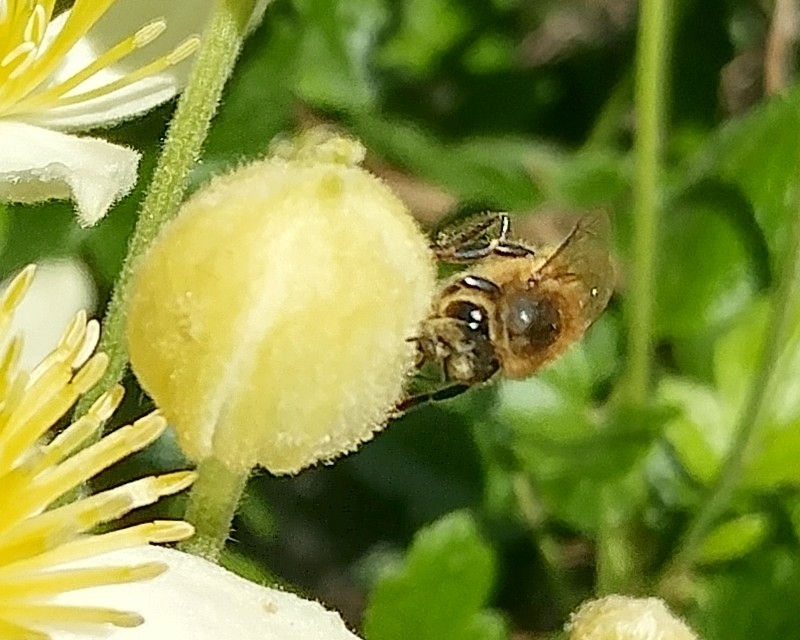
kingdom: Animalia
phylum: Arthropoda
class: Insecta
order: Hymenoptera
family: Apidae
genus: Apis
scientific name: Apis mellifera
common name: Honey bee
